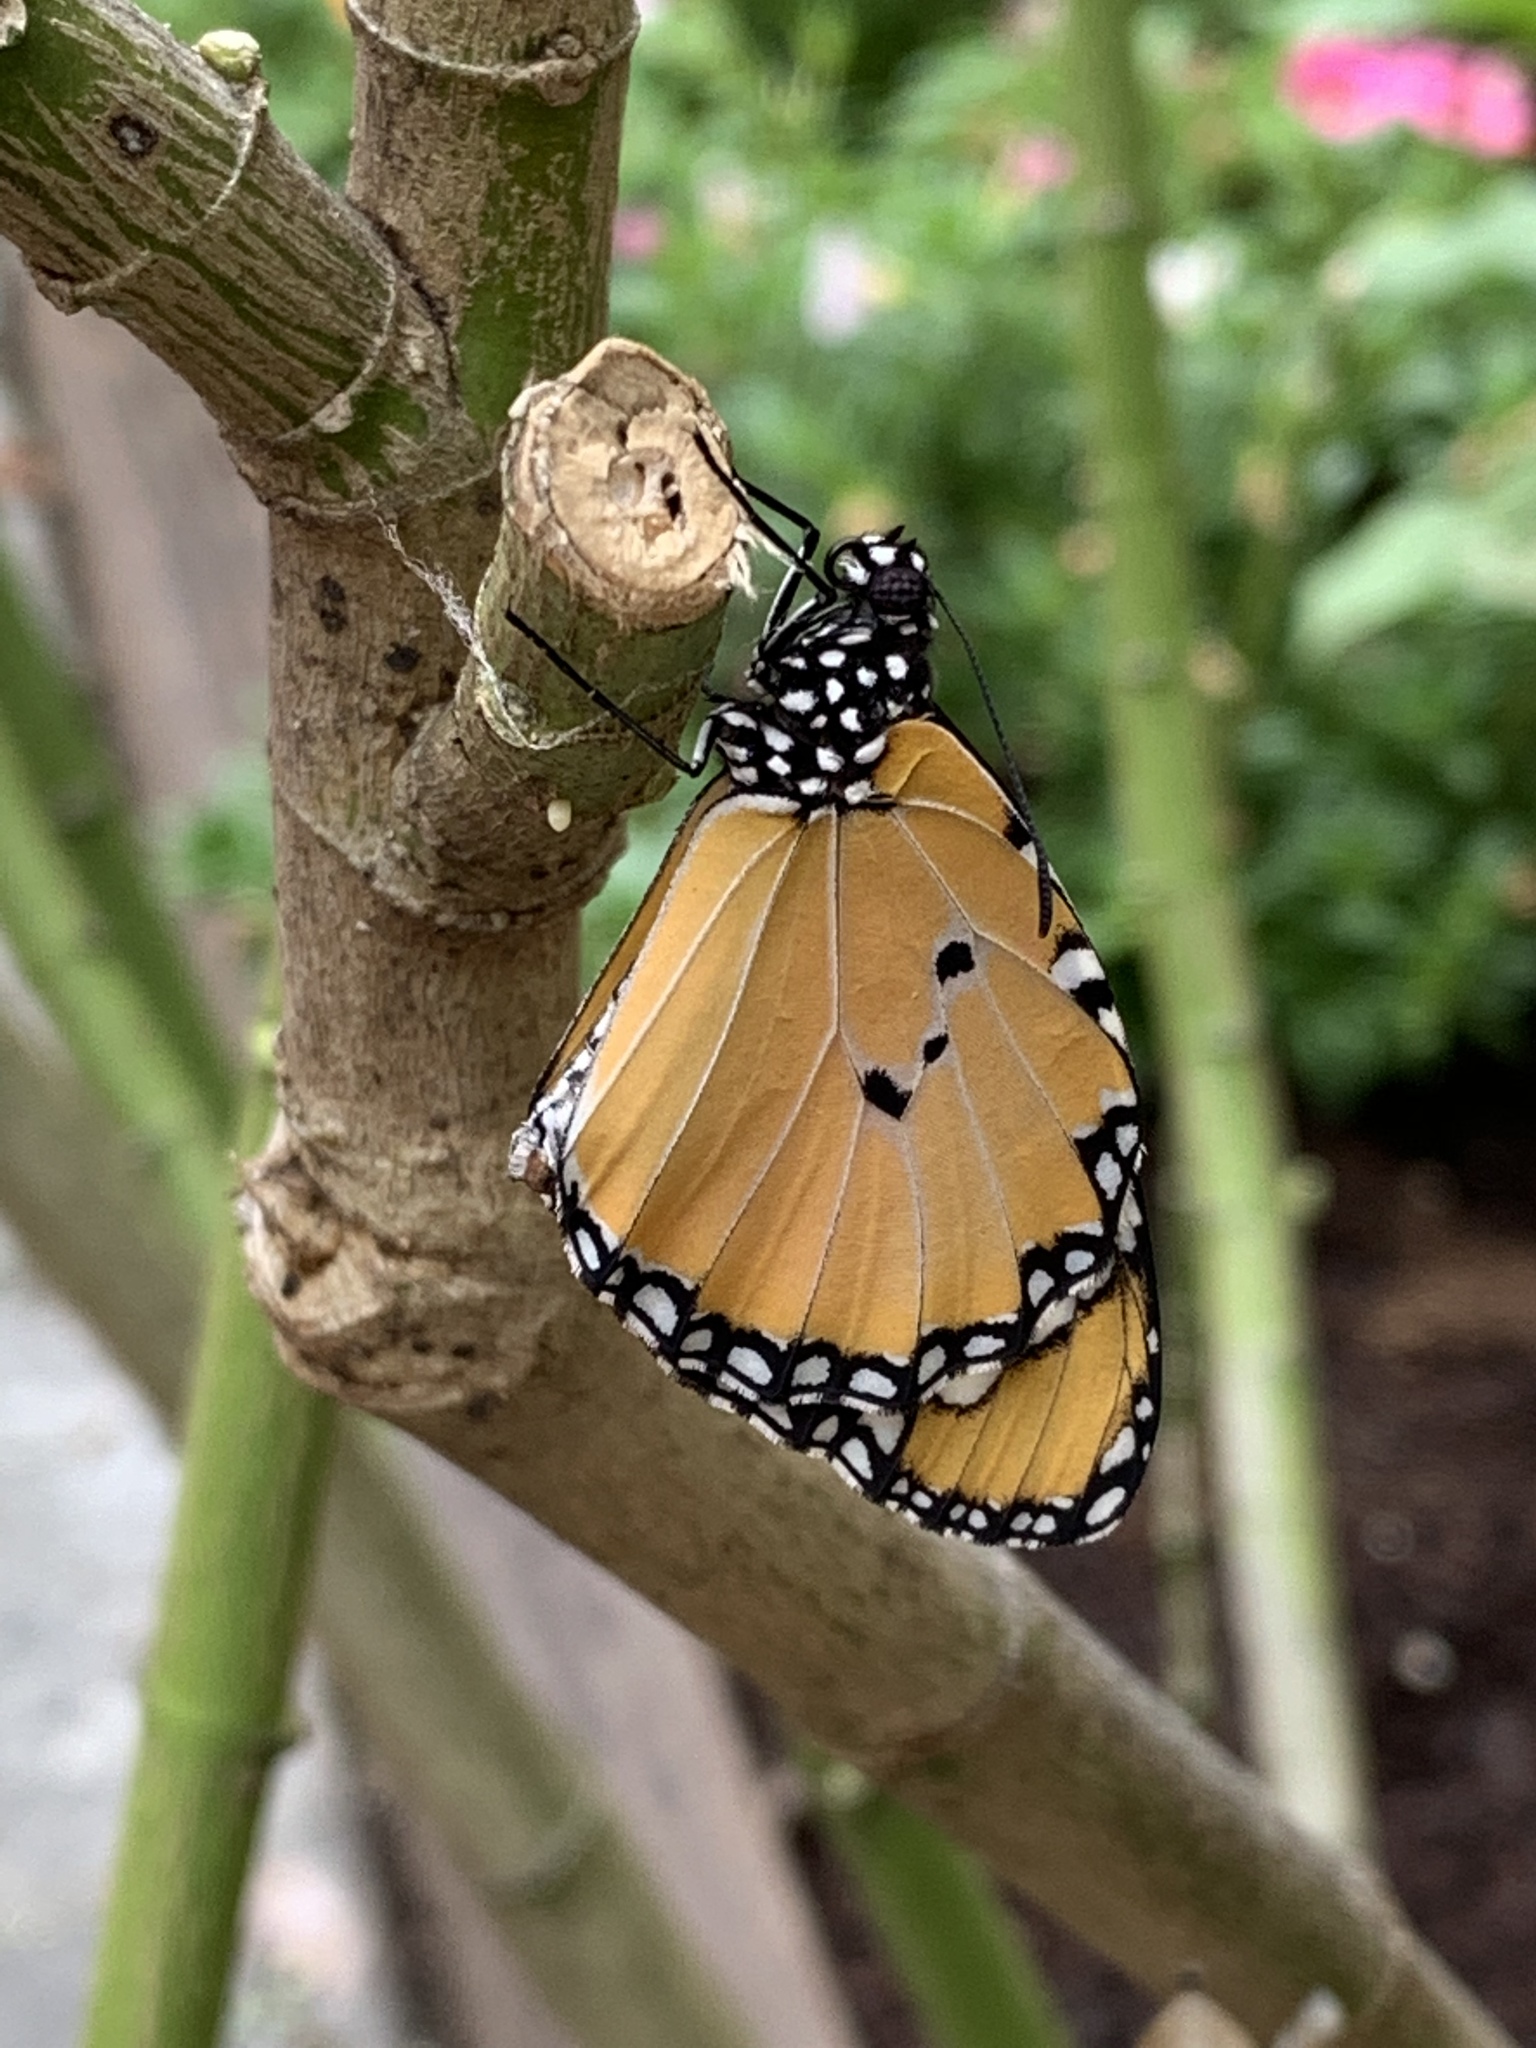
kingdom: Animalia
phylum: Arthropoda
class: Insecta
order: Lepidoptera
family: Nymphalidae
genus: Danaus
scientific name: Danaus chrysippus
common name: Plain tiger
